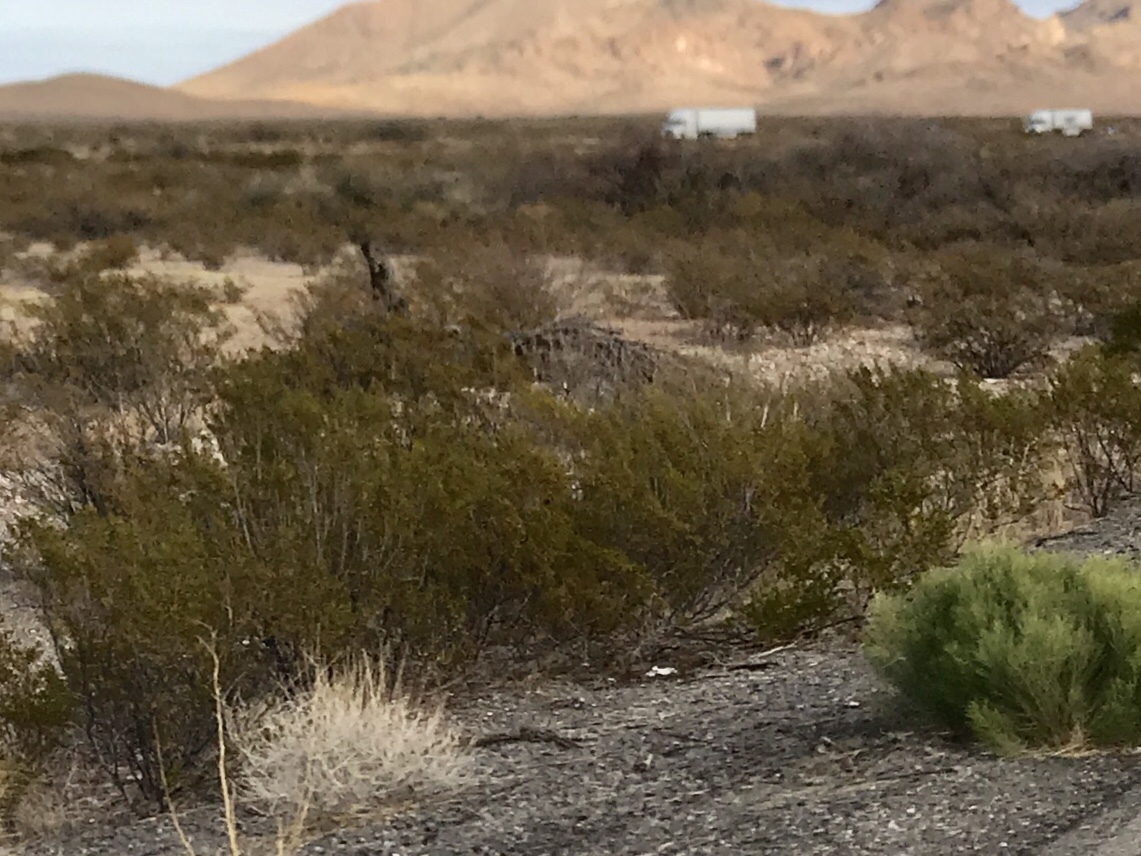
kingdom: Plantae
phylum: Tracheophyta
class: Magnoliopsida
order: Zygophyllales
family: Zygophyllaceae
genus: Larrea
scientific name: Larrea tridentata
